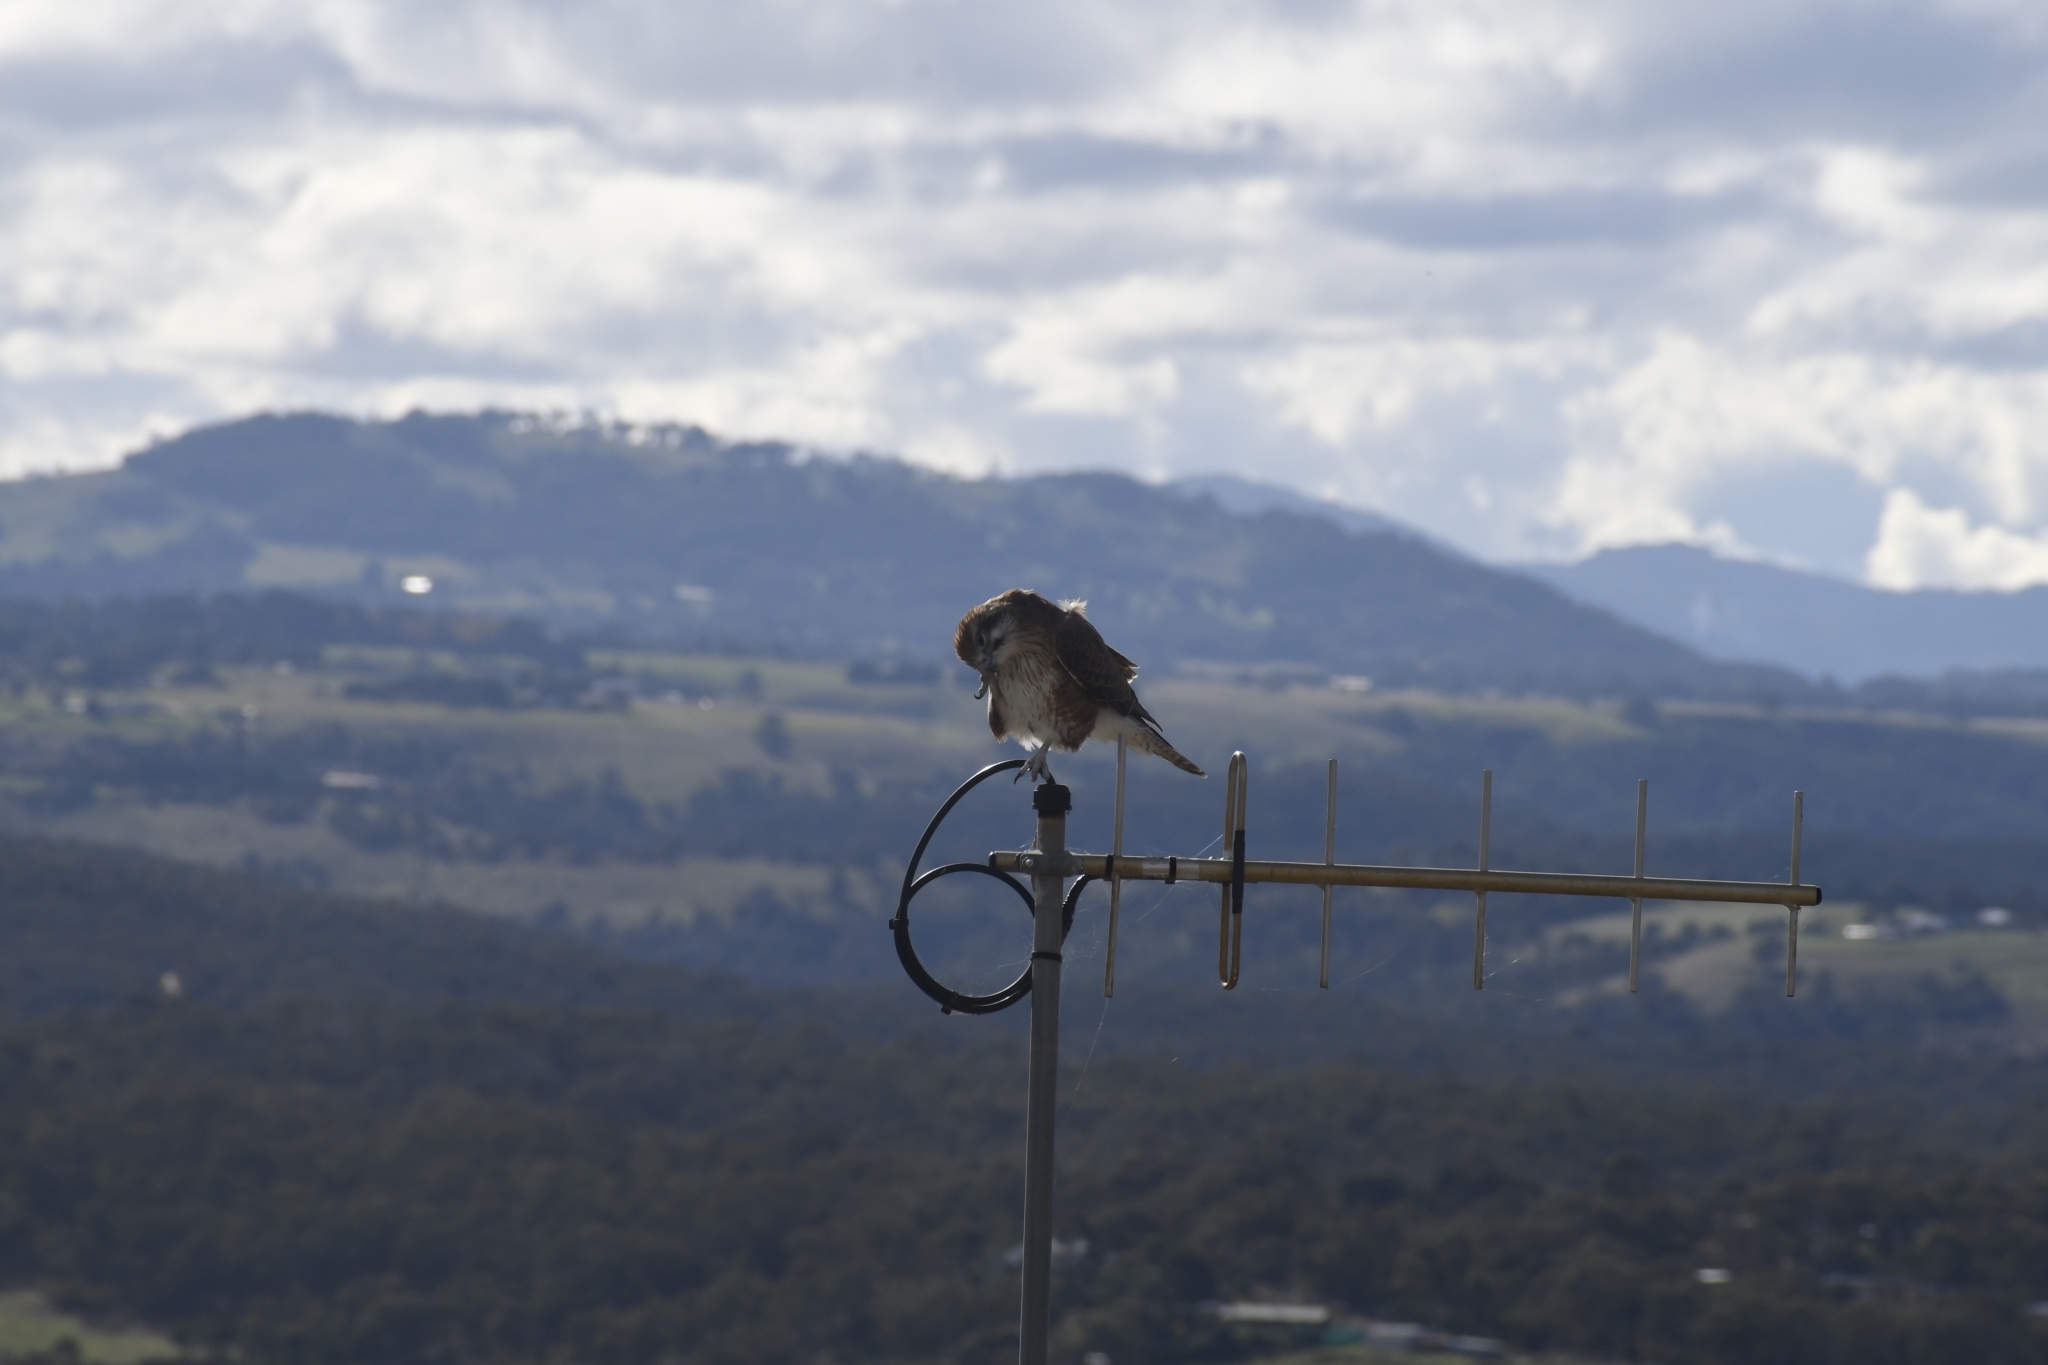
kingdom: Animalia
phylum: Chordata
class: Aves
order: Falconiformes
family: Falconidae
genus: Falco
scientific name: Falco berigora
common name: Brown falcon
